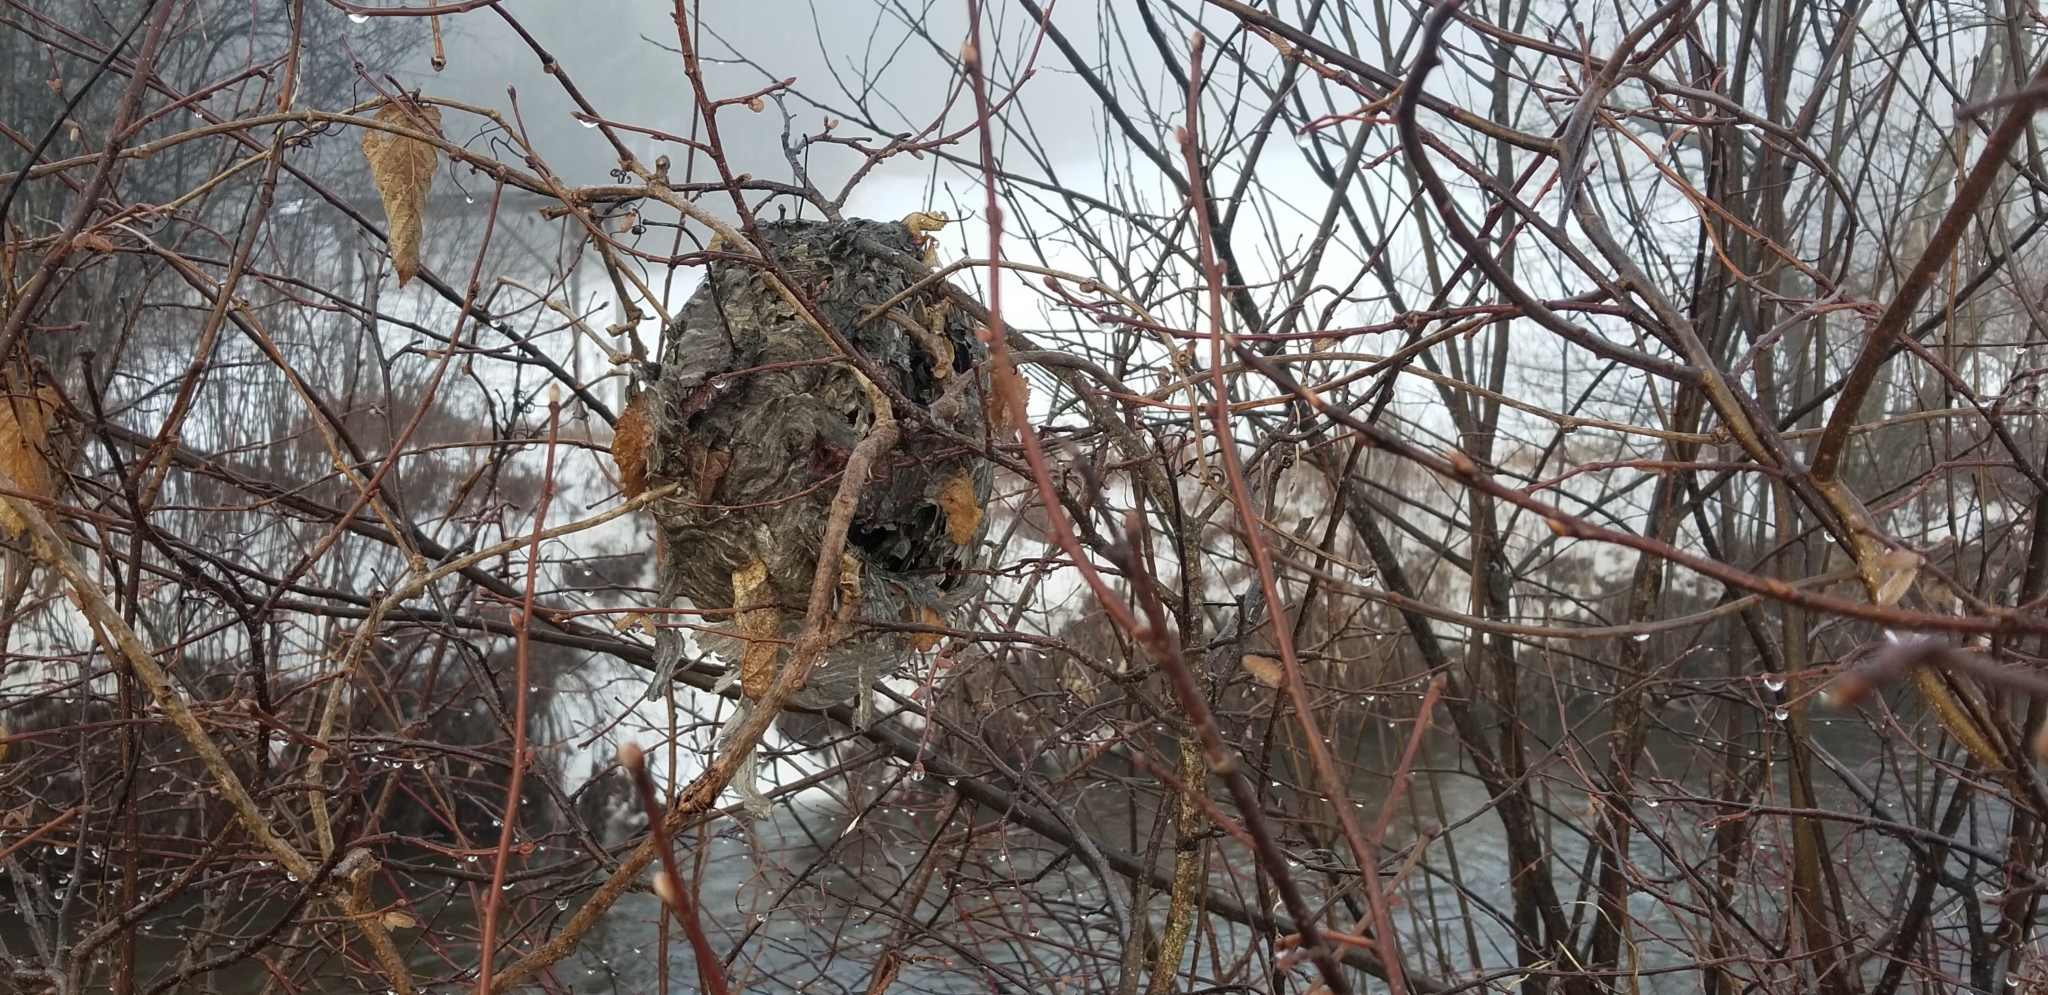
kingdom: Animalia
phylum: Arthropoda
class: Insecta
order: Hymenoptera
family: Vespidae
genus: Dolichovespula
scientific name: Dolichovespula maculata
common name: Bald-faced hornet
